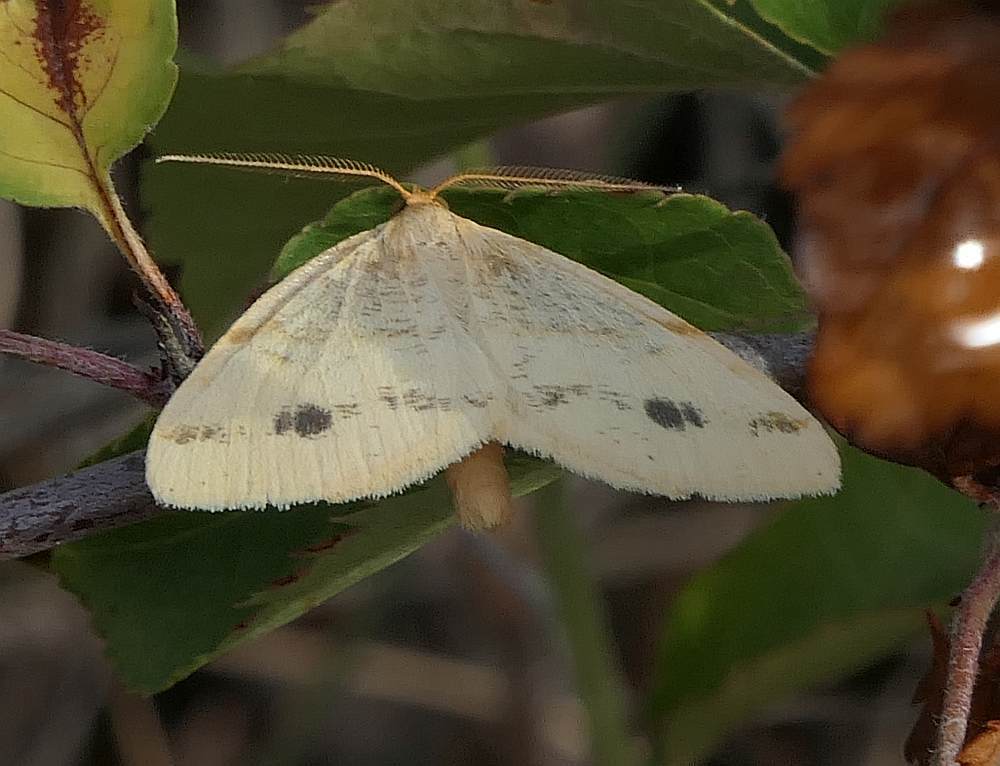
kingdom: Animalia
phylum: Arthropoda
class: Insecta
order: Lepidoptera
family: Geometridae
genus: Macaria
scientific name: Macaria ribearia
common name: Currant spanworm moth
